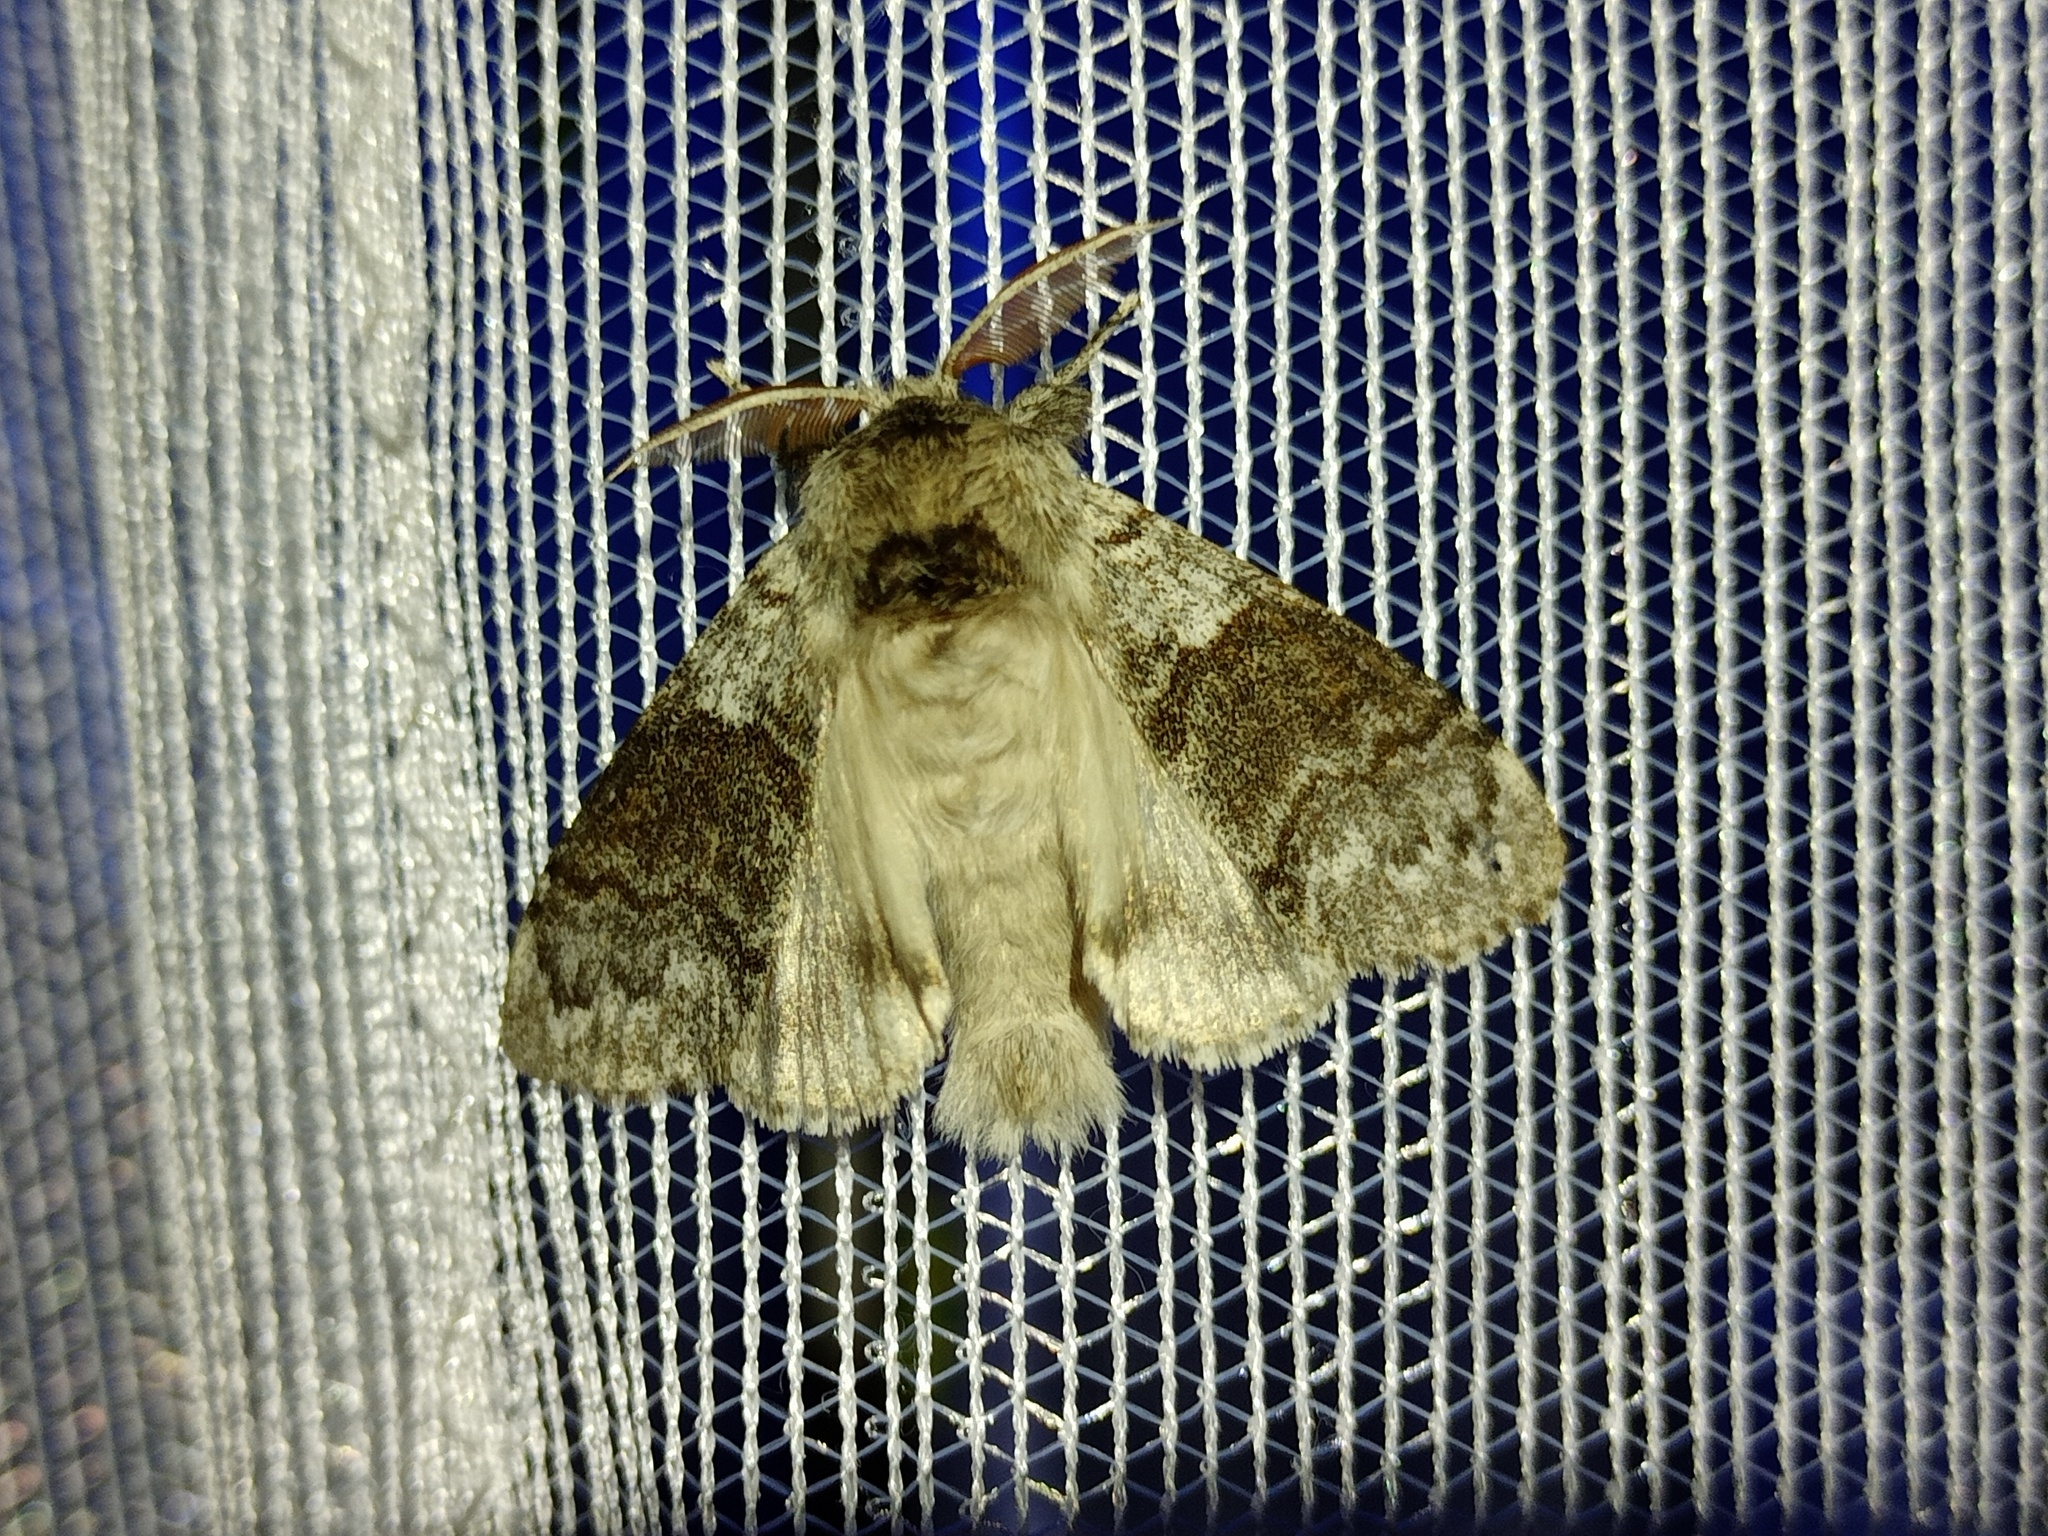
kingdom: Animalia
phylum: Arthropoda
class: Insecta
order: Lepidoptera
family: Erebidae
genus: Calliteara
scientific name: Calliteara pudibunda
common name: Pale tussock
